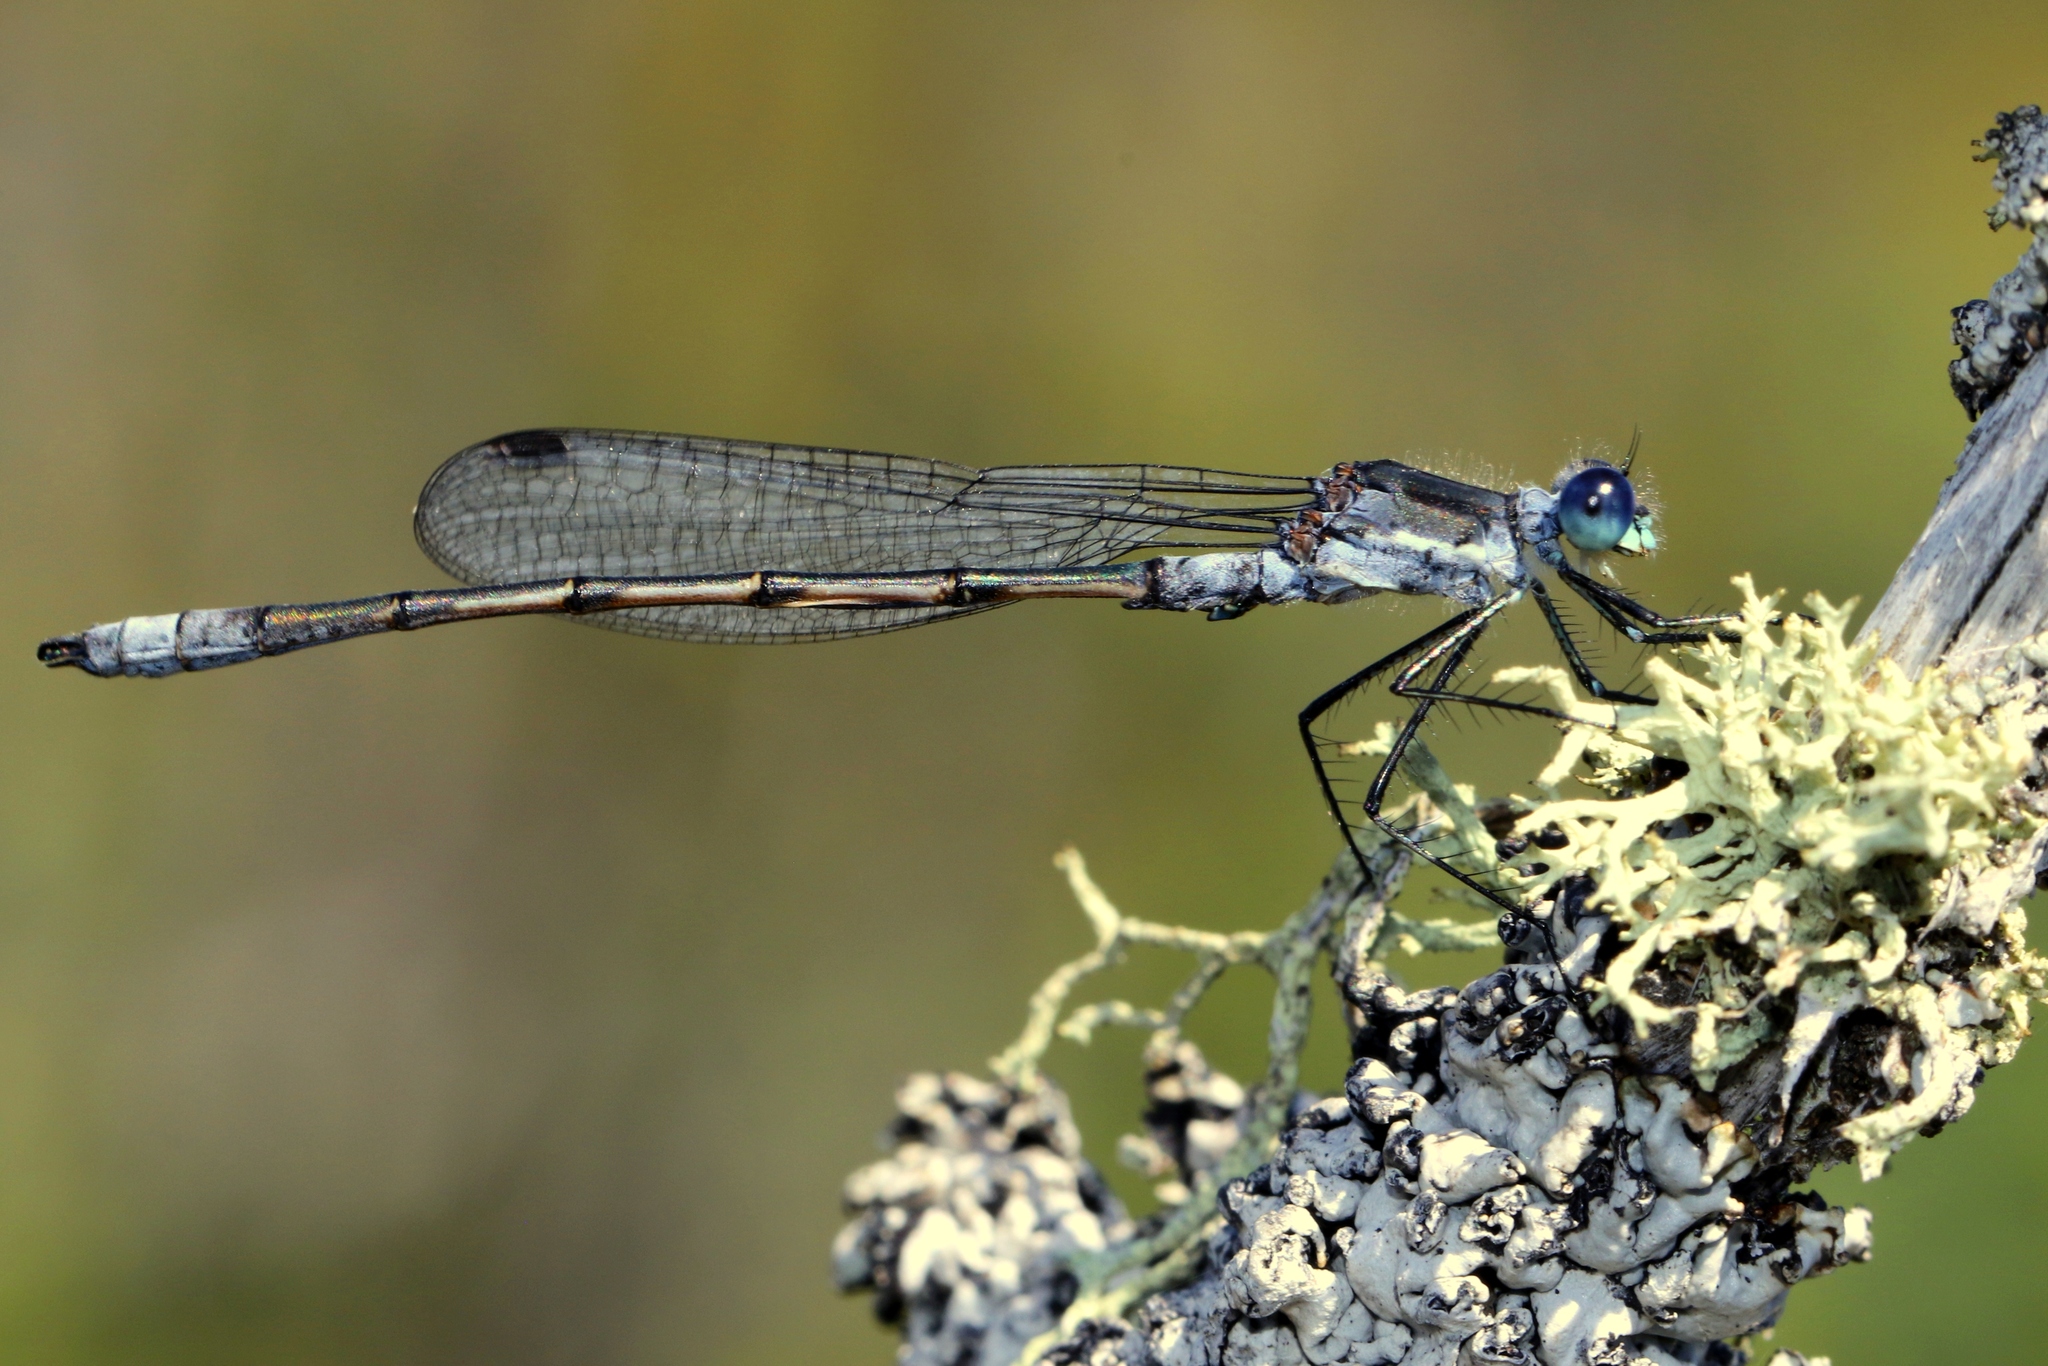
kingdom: Animalia
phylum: Arthropoda
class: Insecta
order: Odonata
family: Lestidae
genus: Lestes
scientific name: Lestes disjunctus
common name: Northern spreadwing
